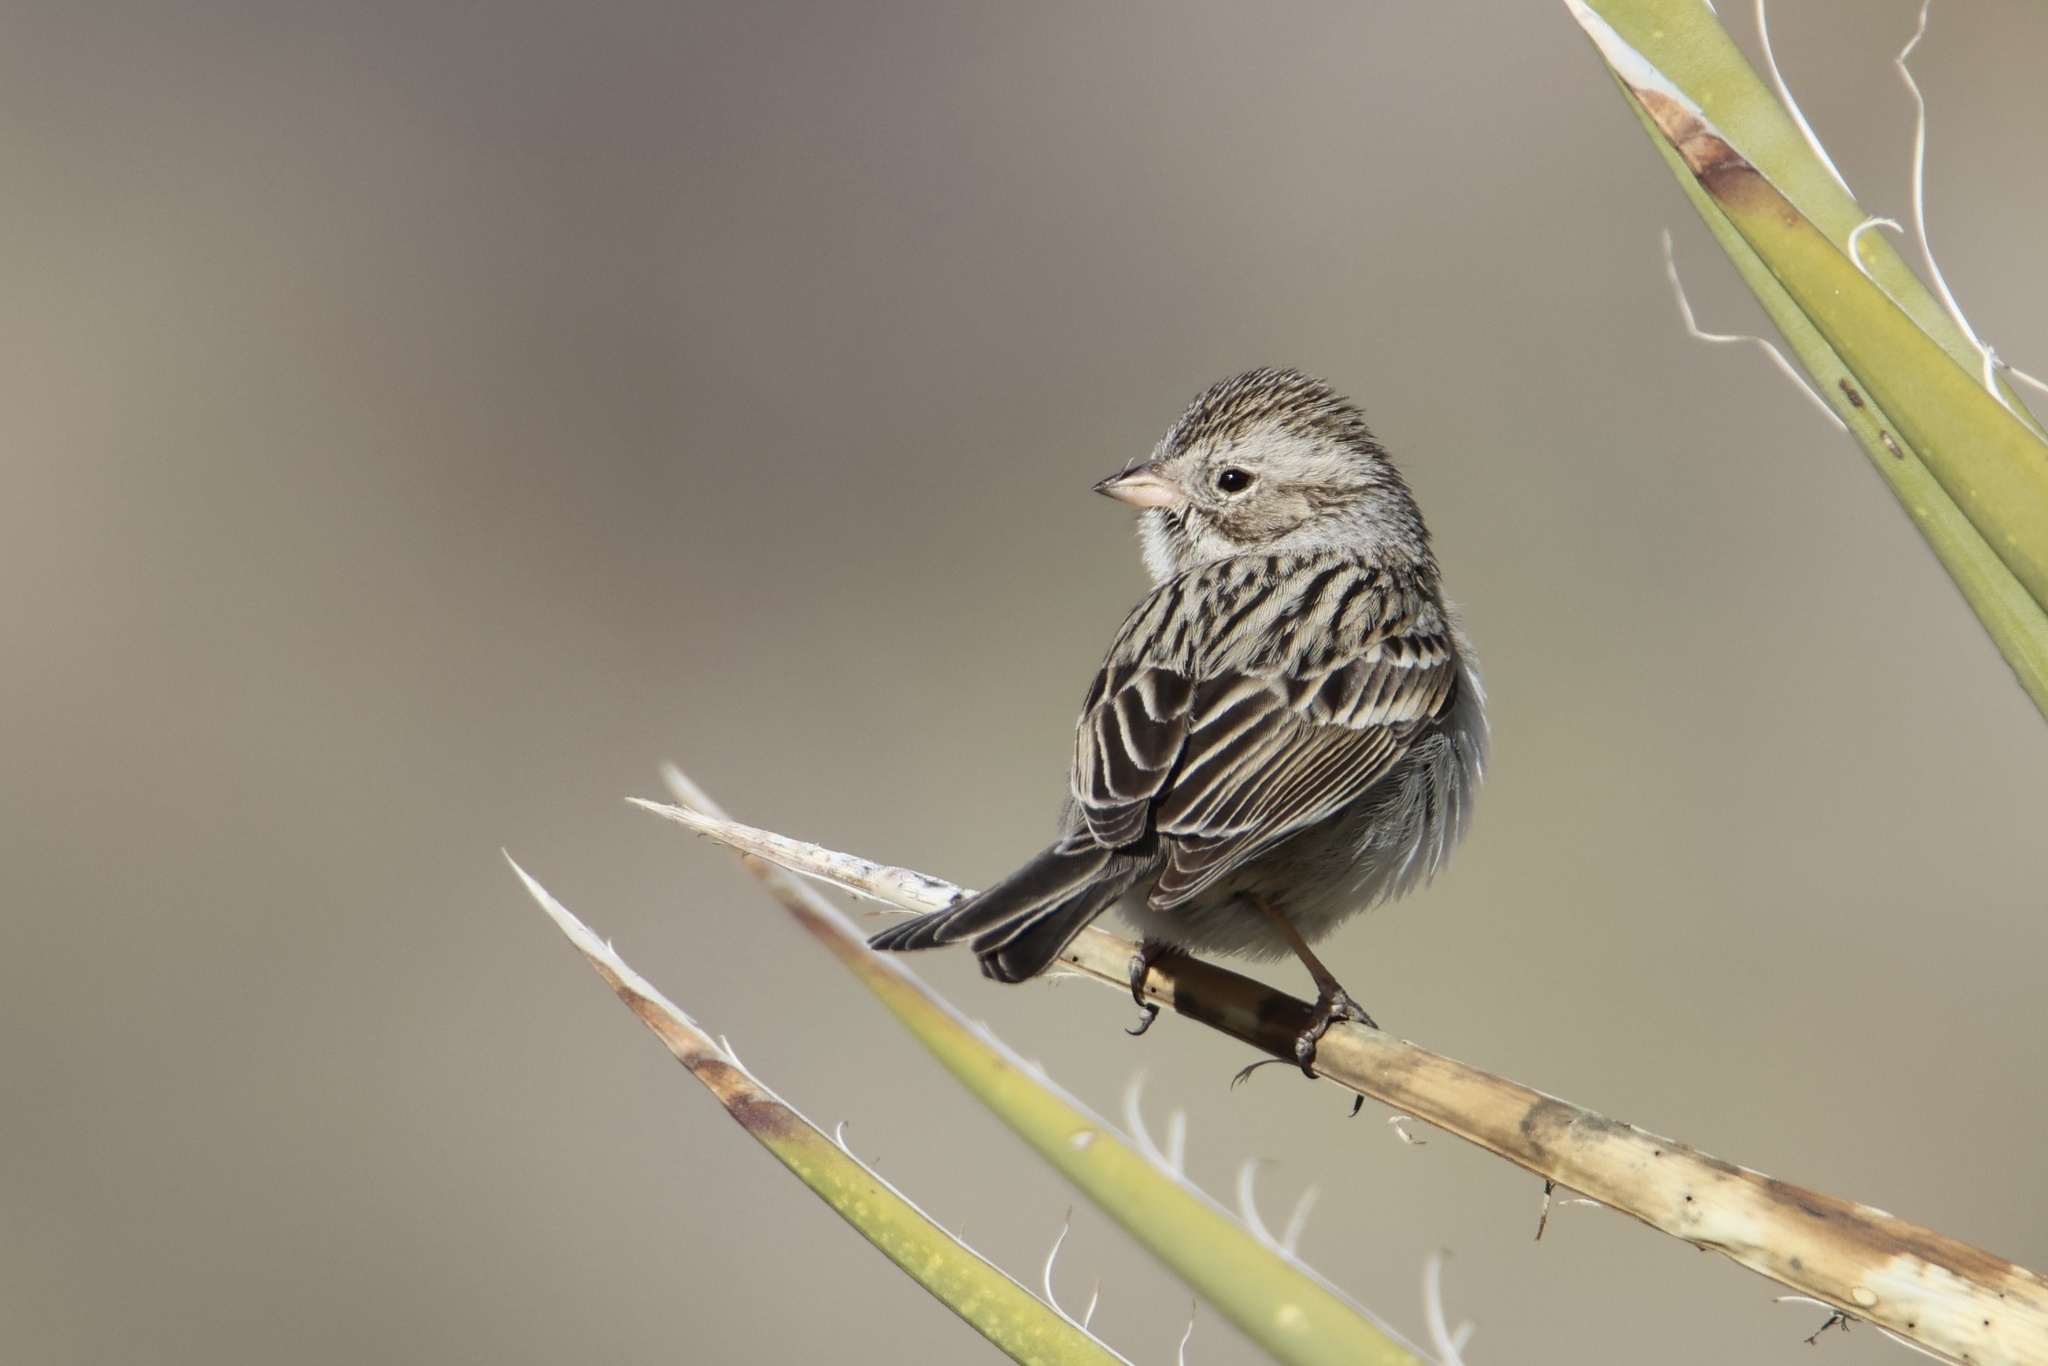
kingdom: Animalia
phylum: Chordata
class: Aves
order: Passeriformes
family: Passerellidae
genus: Spizella
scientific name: Spizella breweri
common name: Brewer's sparrow
